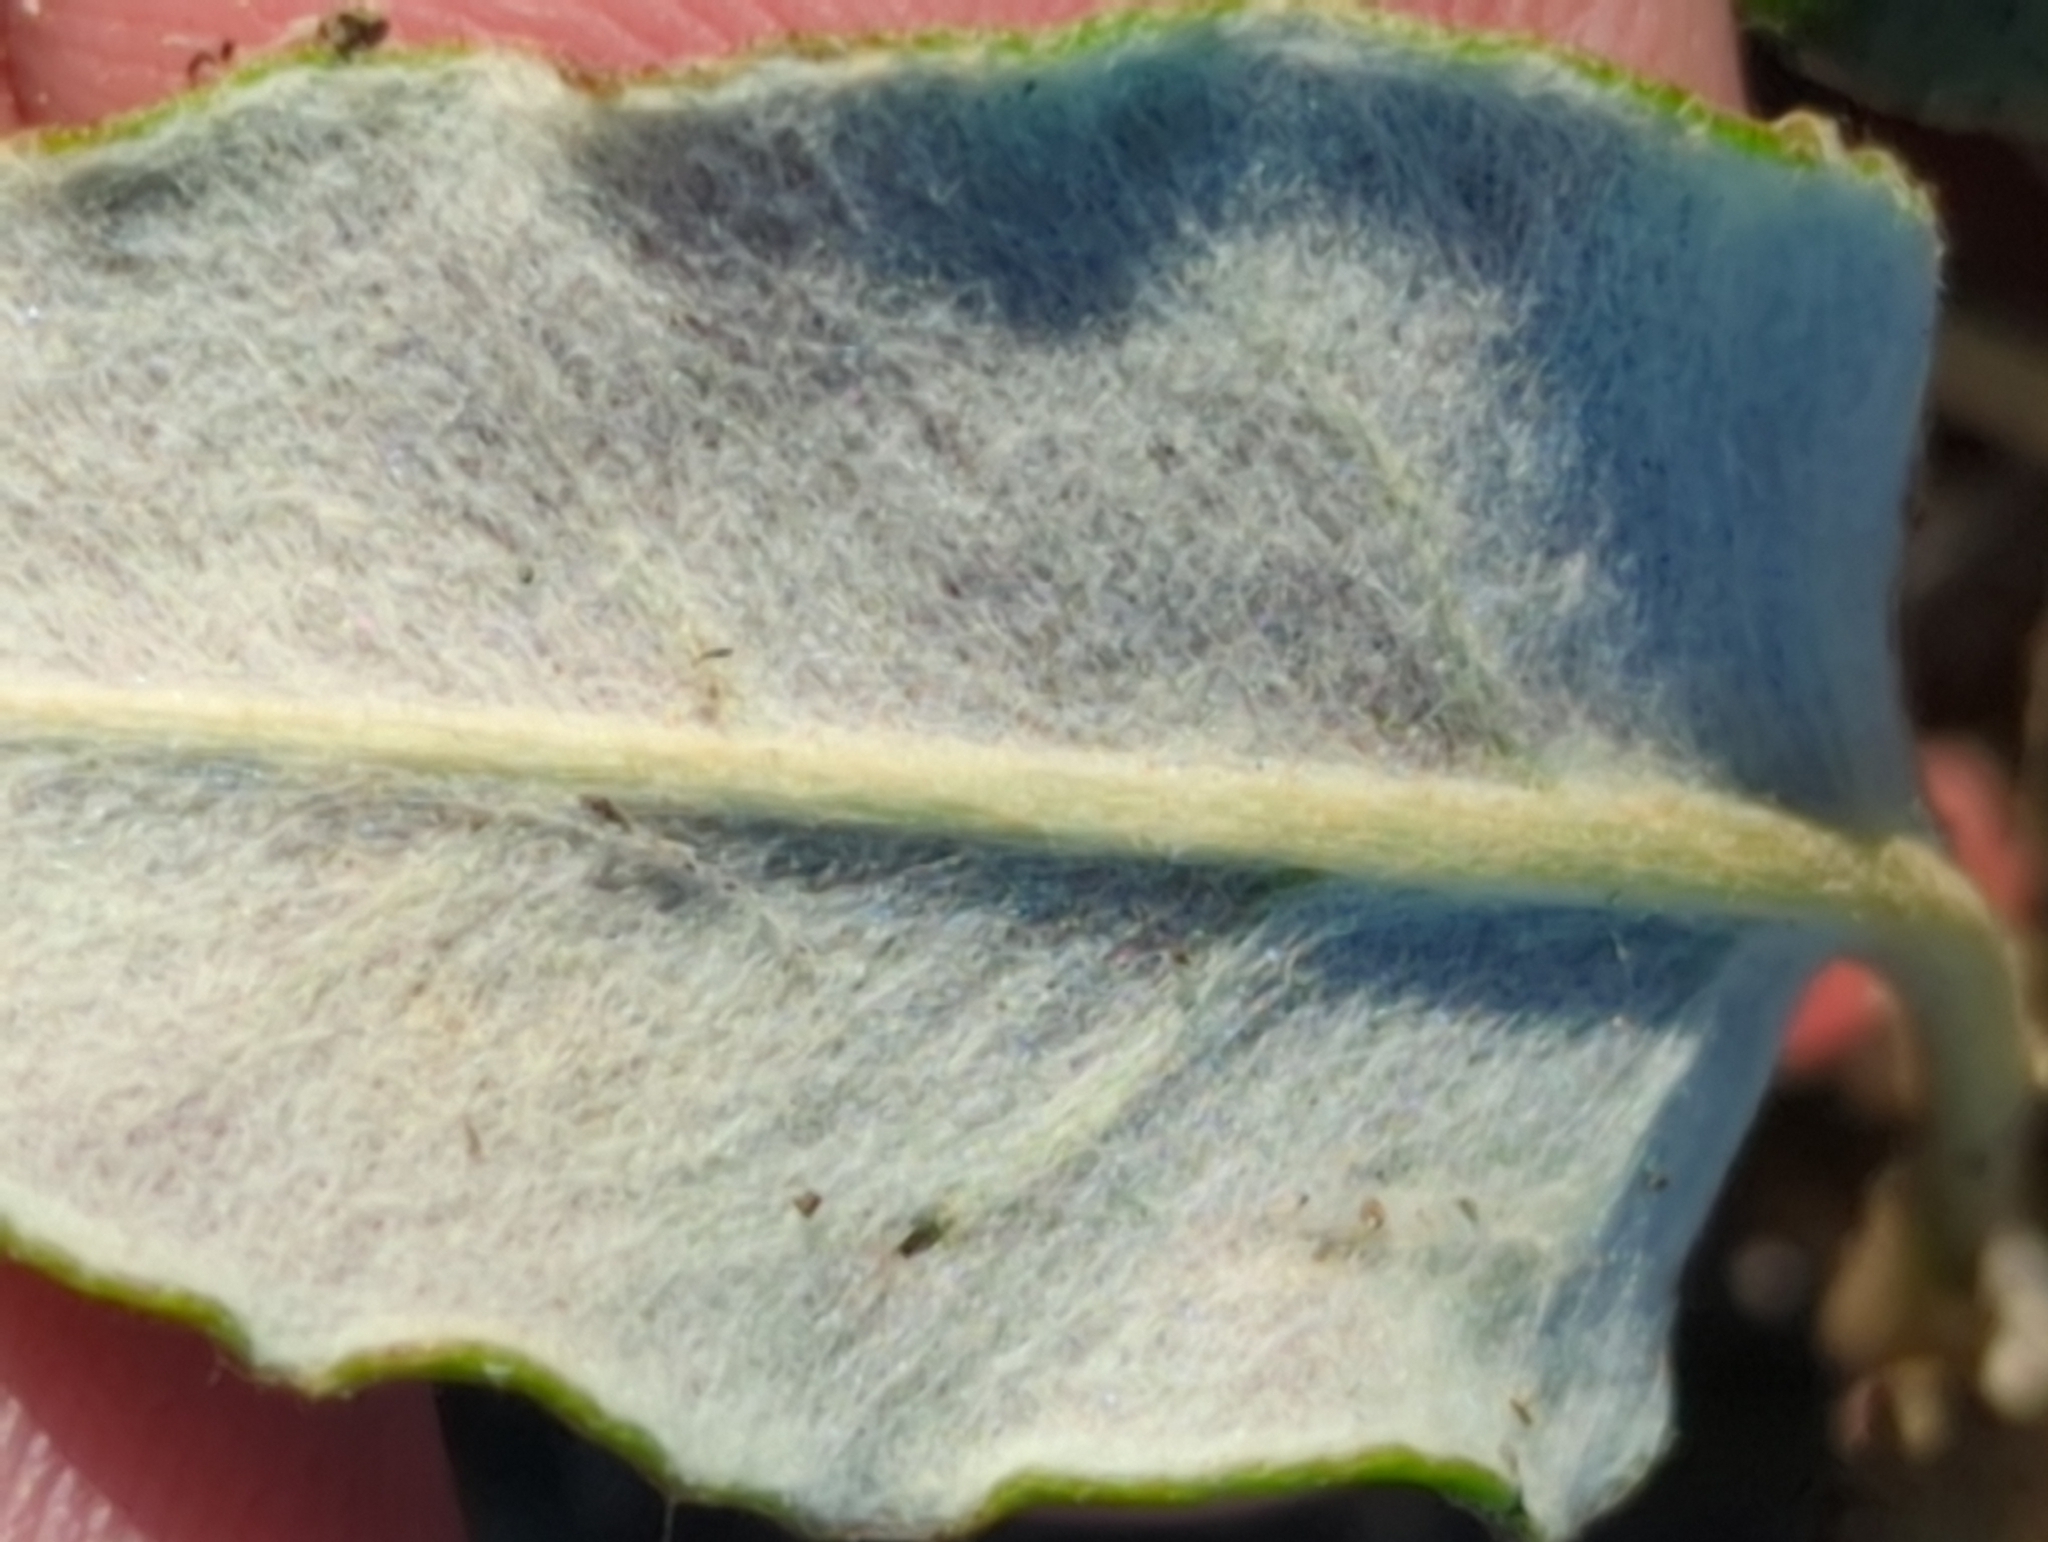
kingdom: Plantae
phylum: Tracheophyta
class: Magnoliopsida
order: Caryophyllales
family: Polygonaceae
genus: Eriogonum
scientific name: Eriogonum nudum
